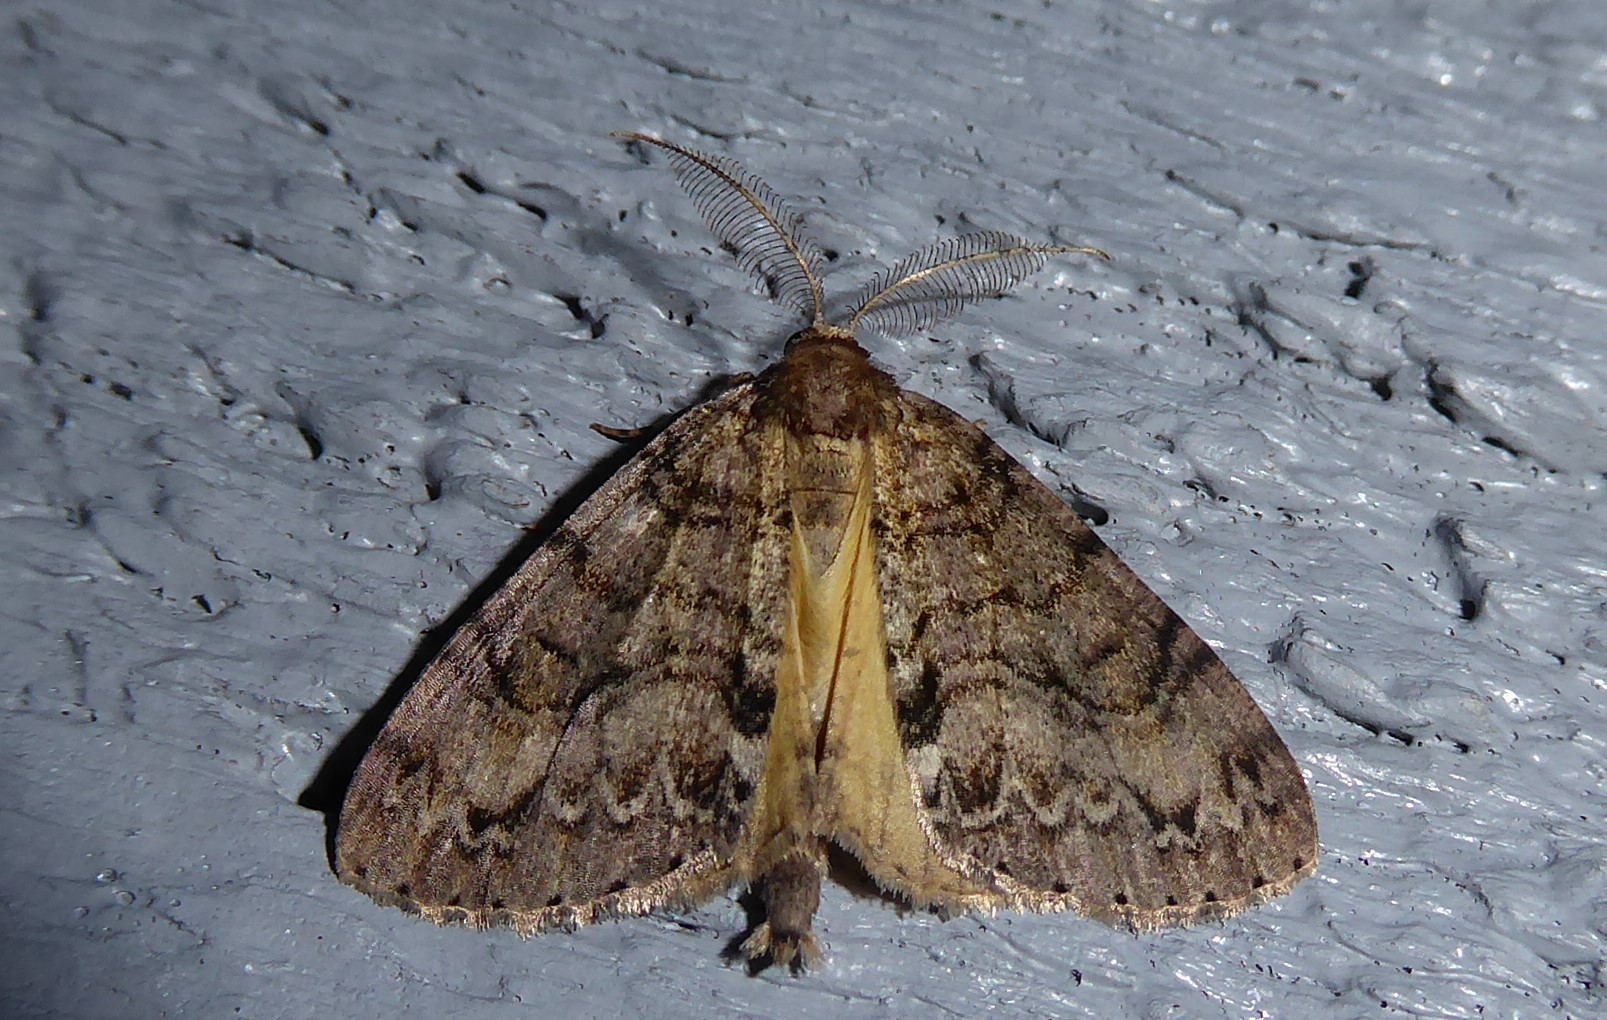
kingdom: Animalia
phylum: Arthropoda
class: Insecta
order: Lepidoptera
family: Geometridae
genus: Pseudocoremia
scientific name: Pseudocoremia suavis
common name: Common forest looper
